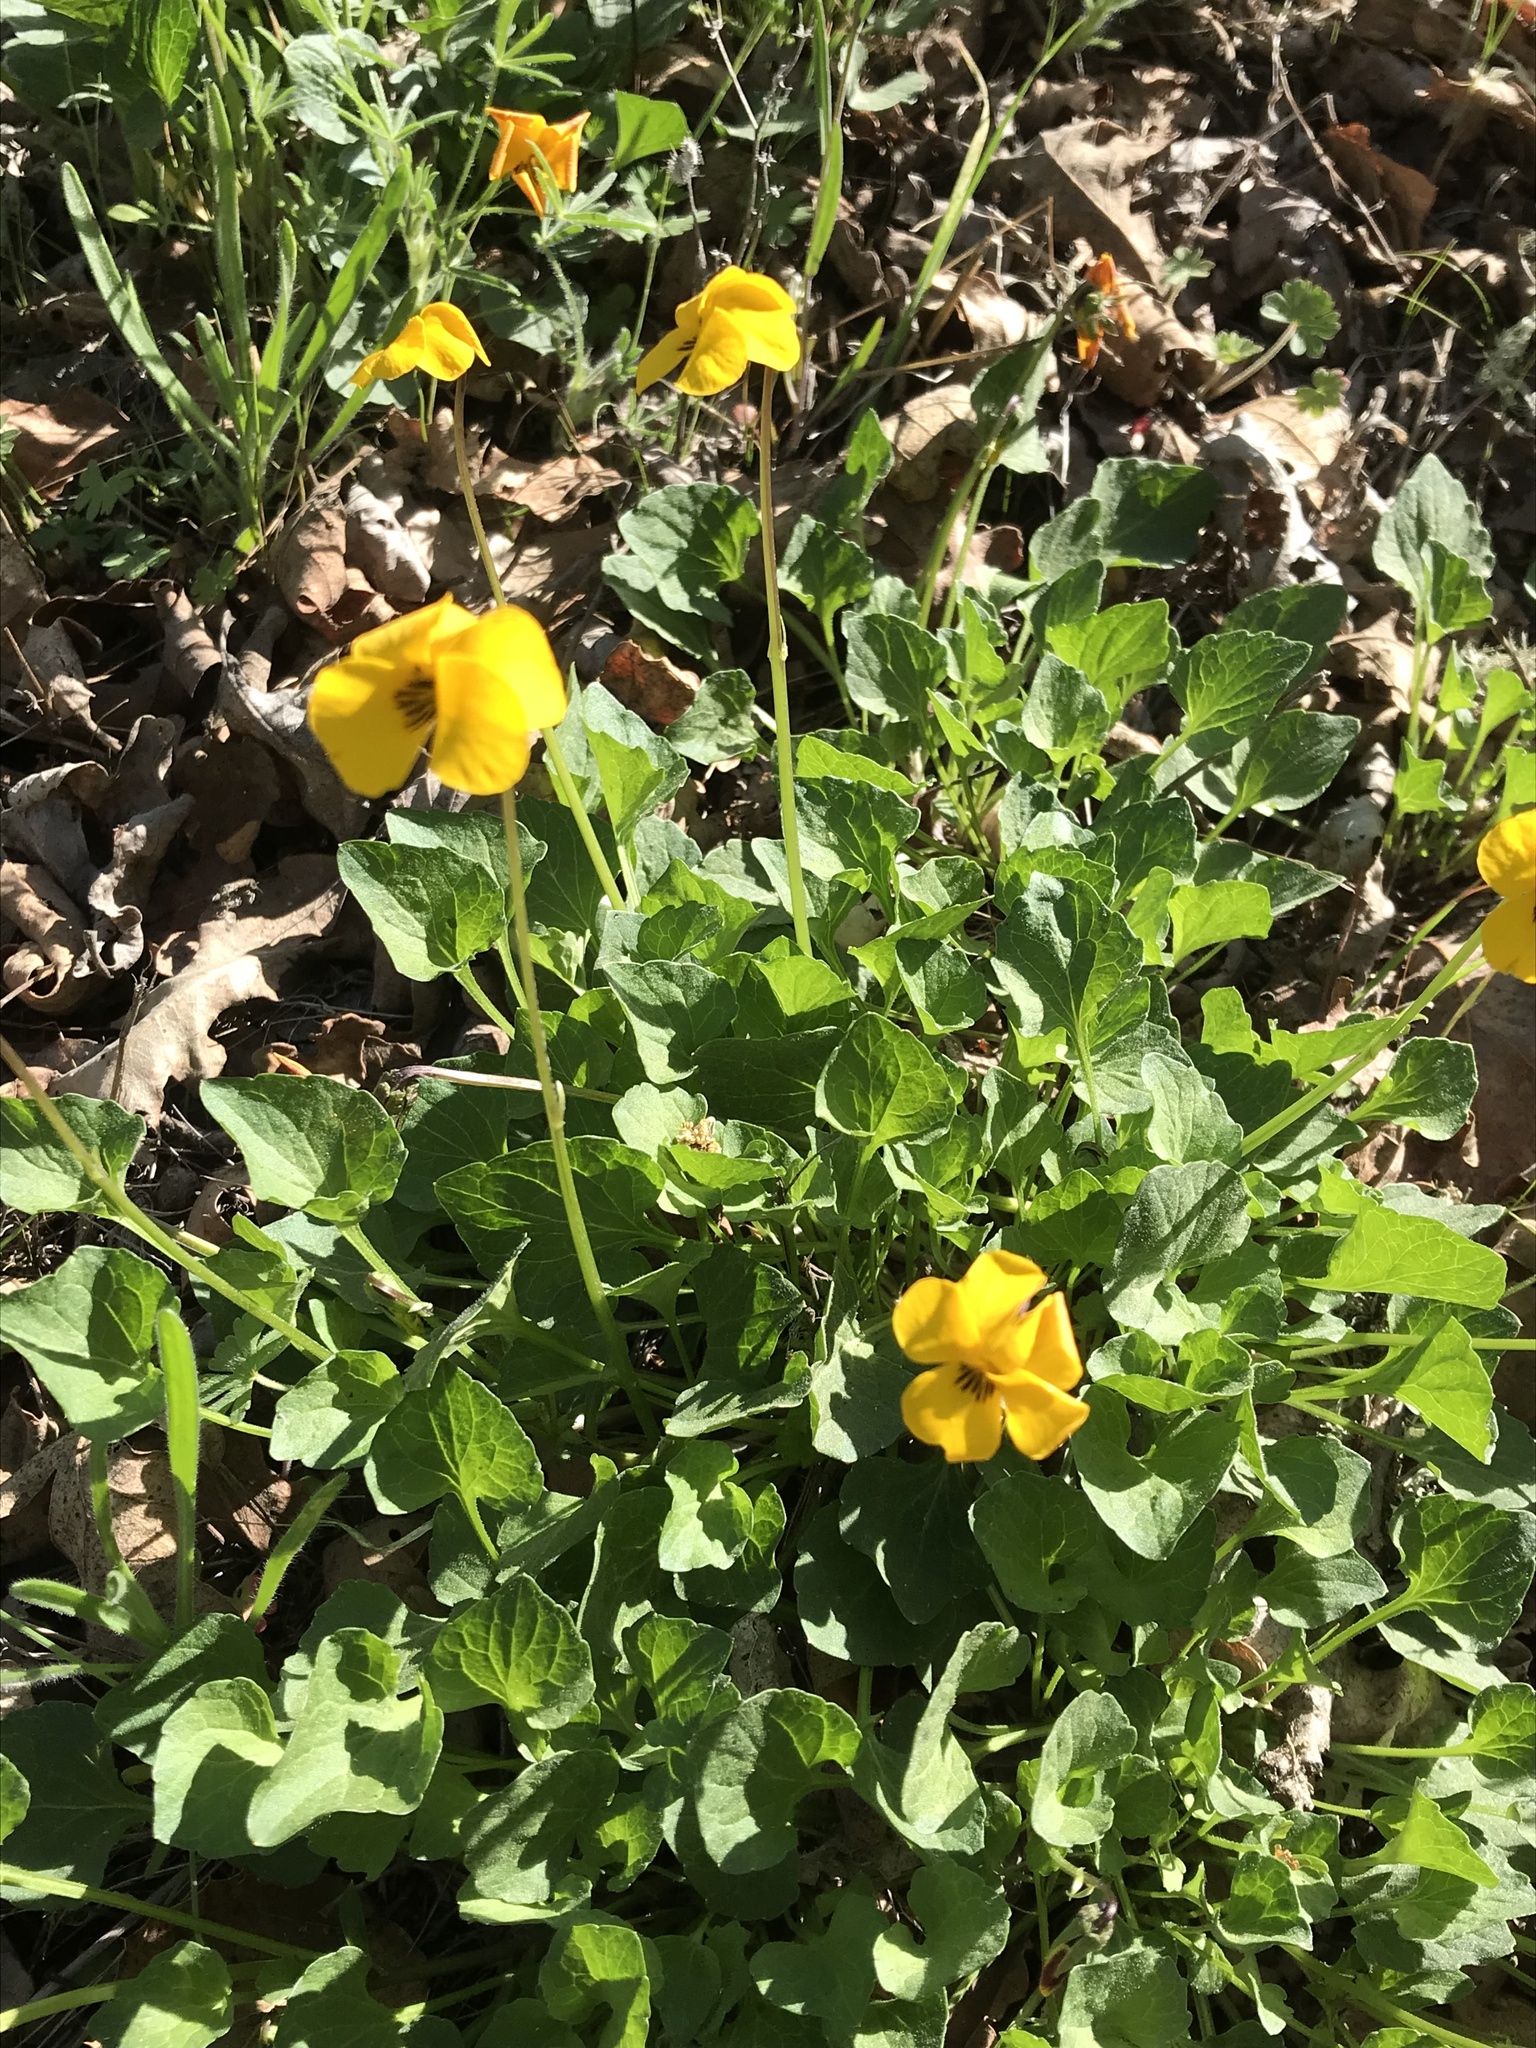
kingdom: Plantae
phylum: Tracheophyta
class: Magnoliopsida
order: Malpighiales
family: Violaceae
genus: Viola
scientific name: Viola pedunculata
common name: California golden violet
